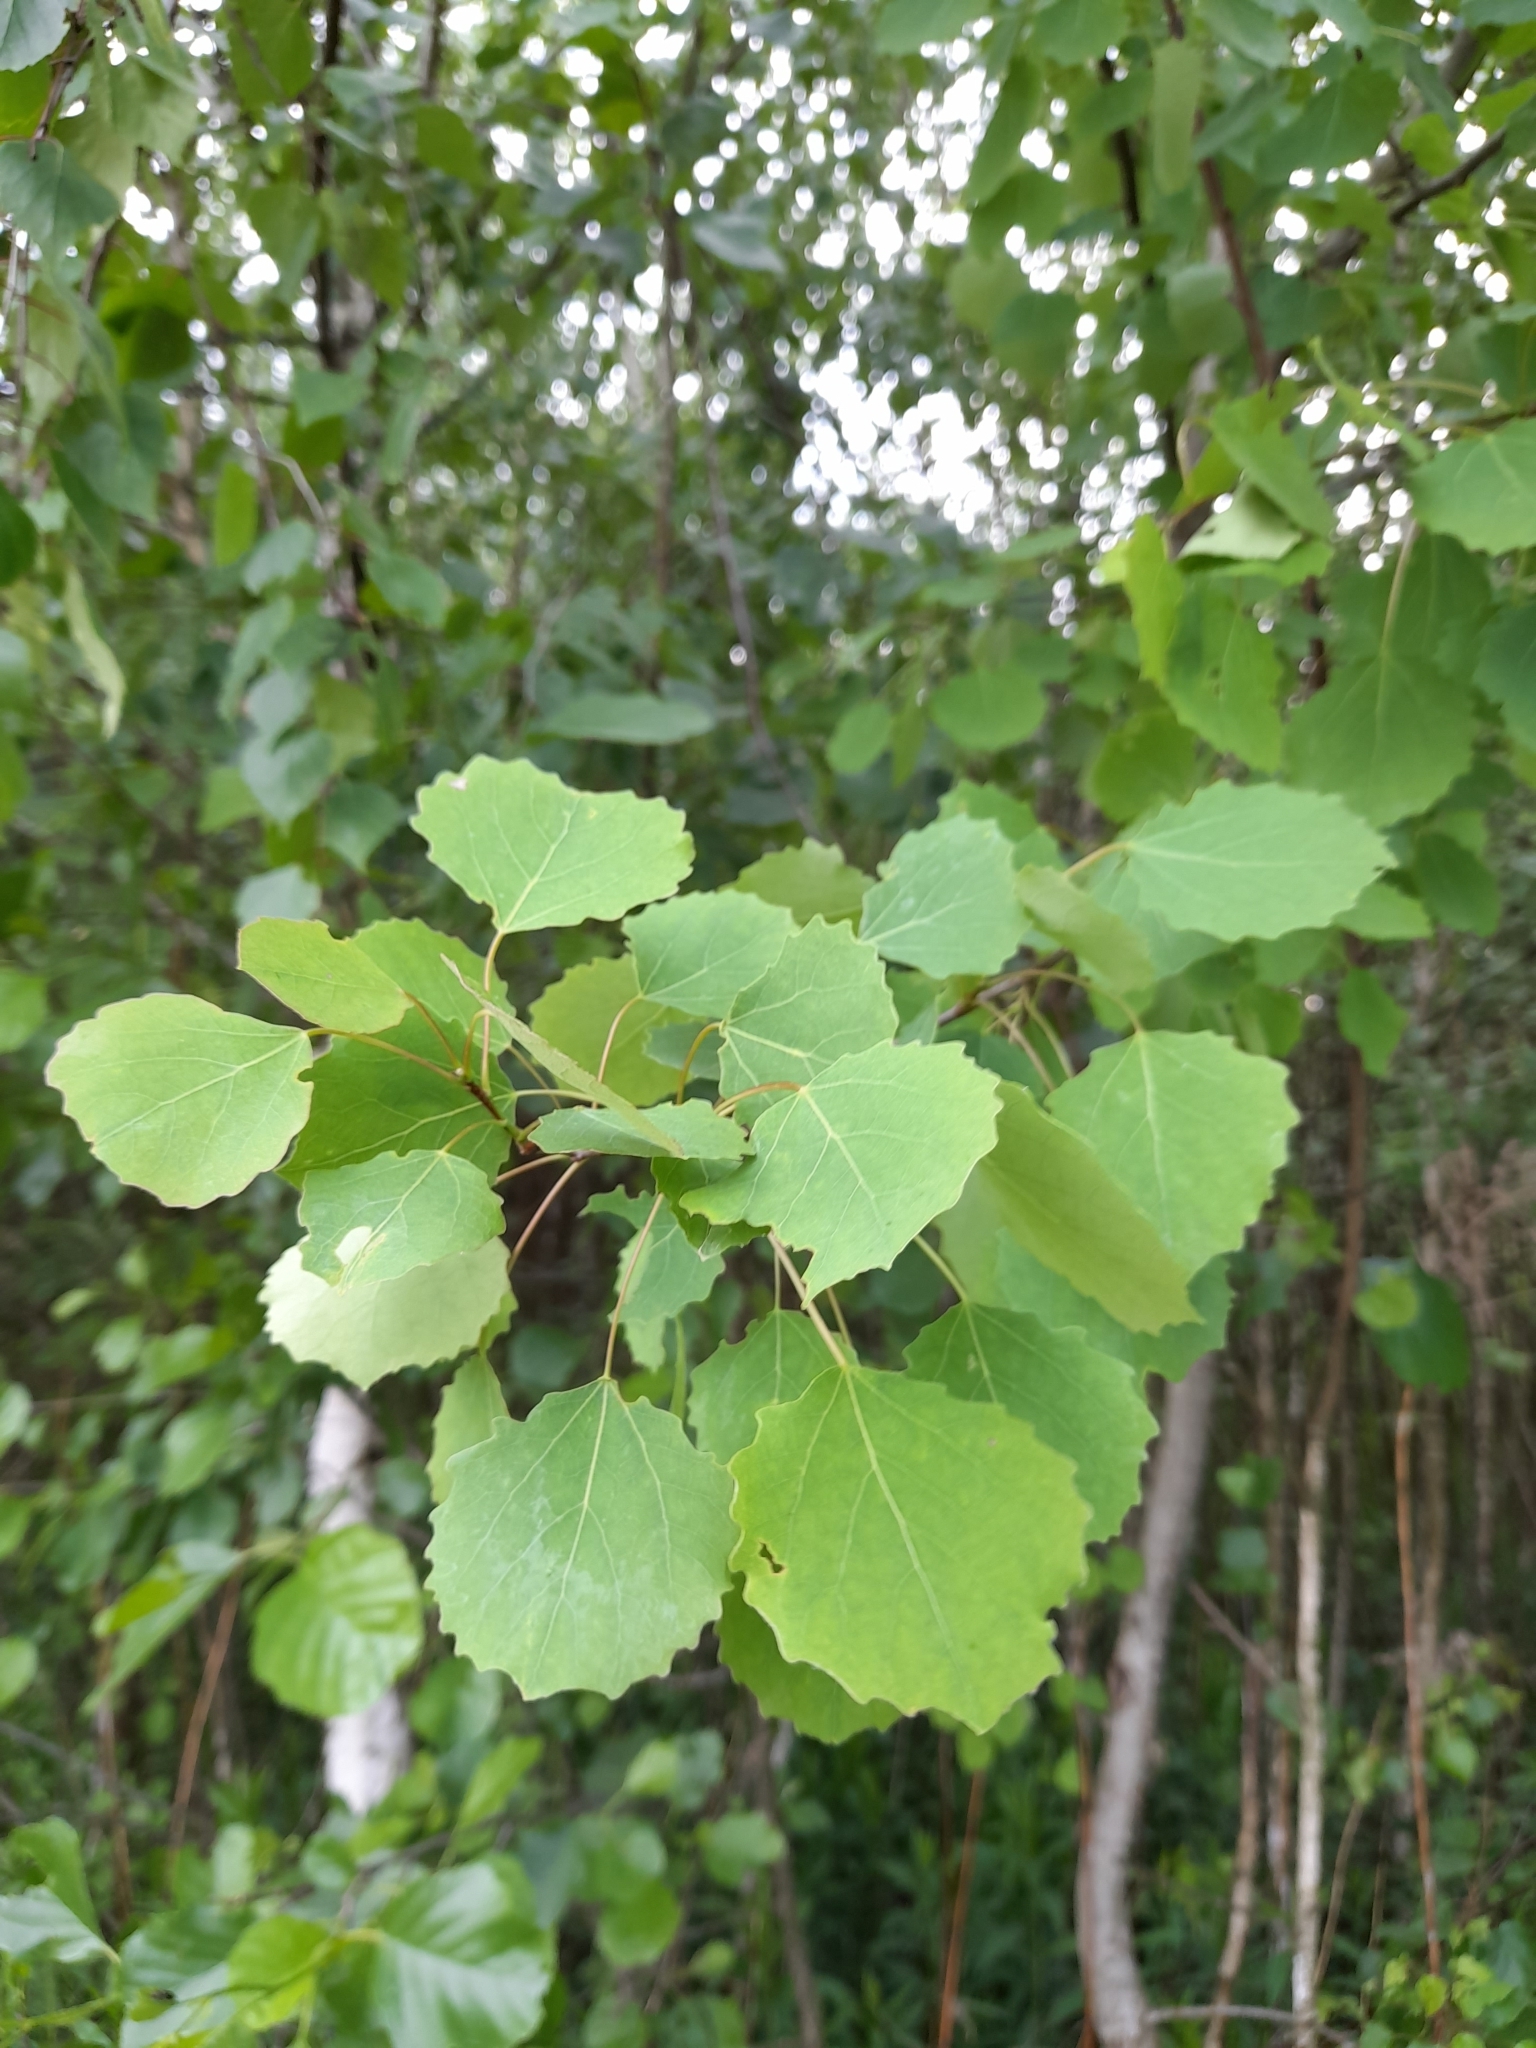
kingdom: Plantae
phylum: Tracheophyta
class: Magnoliopsida
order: Malpighiales
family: Salicaceae
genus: Populus
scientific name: Populus tremula
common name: European aspen
